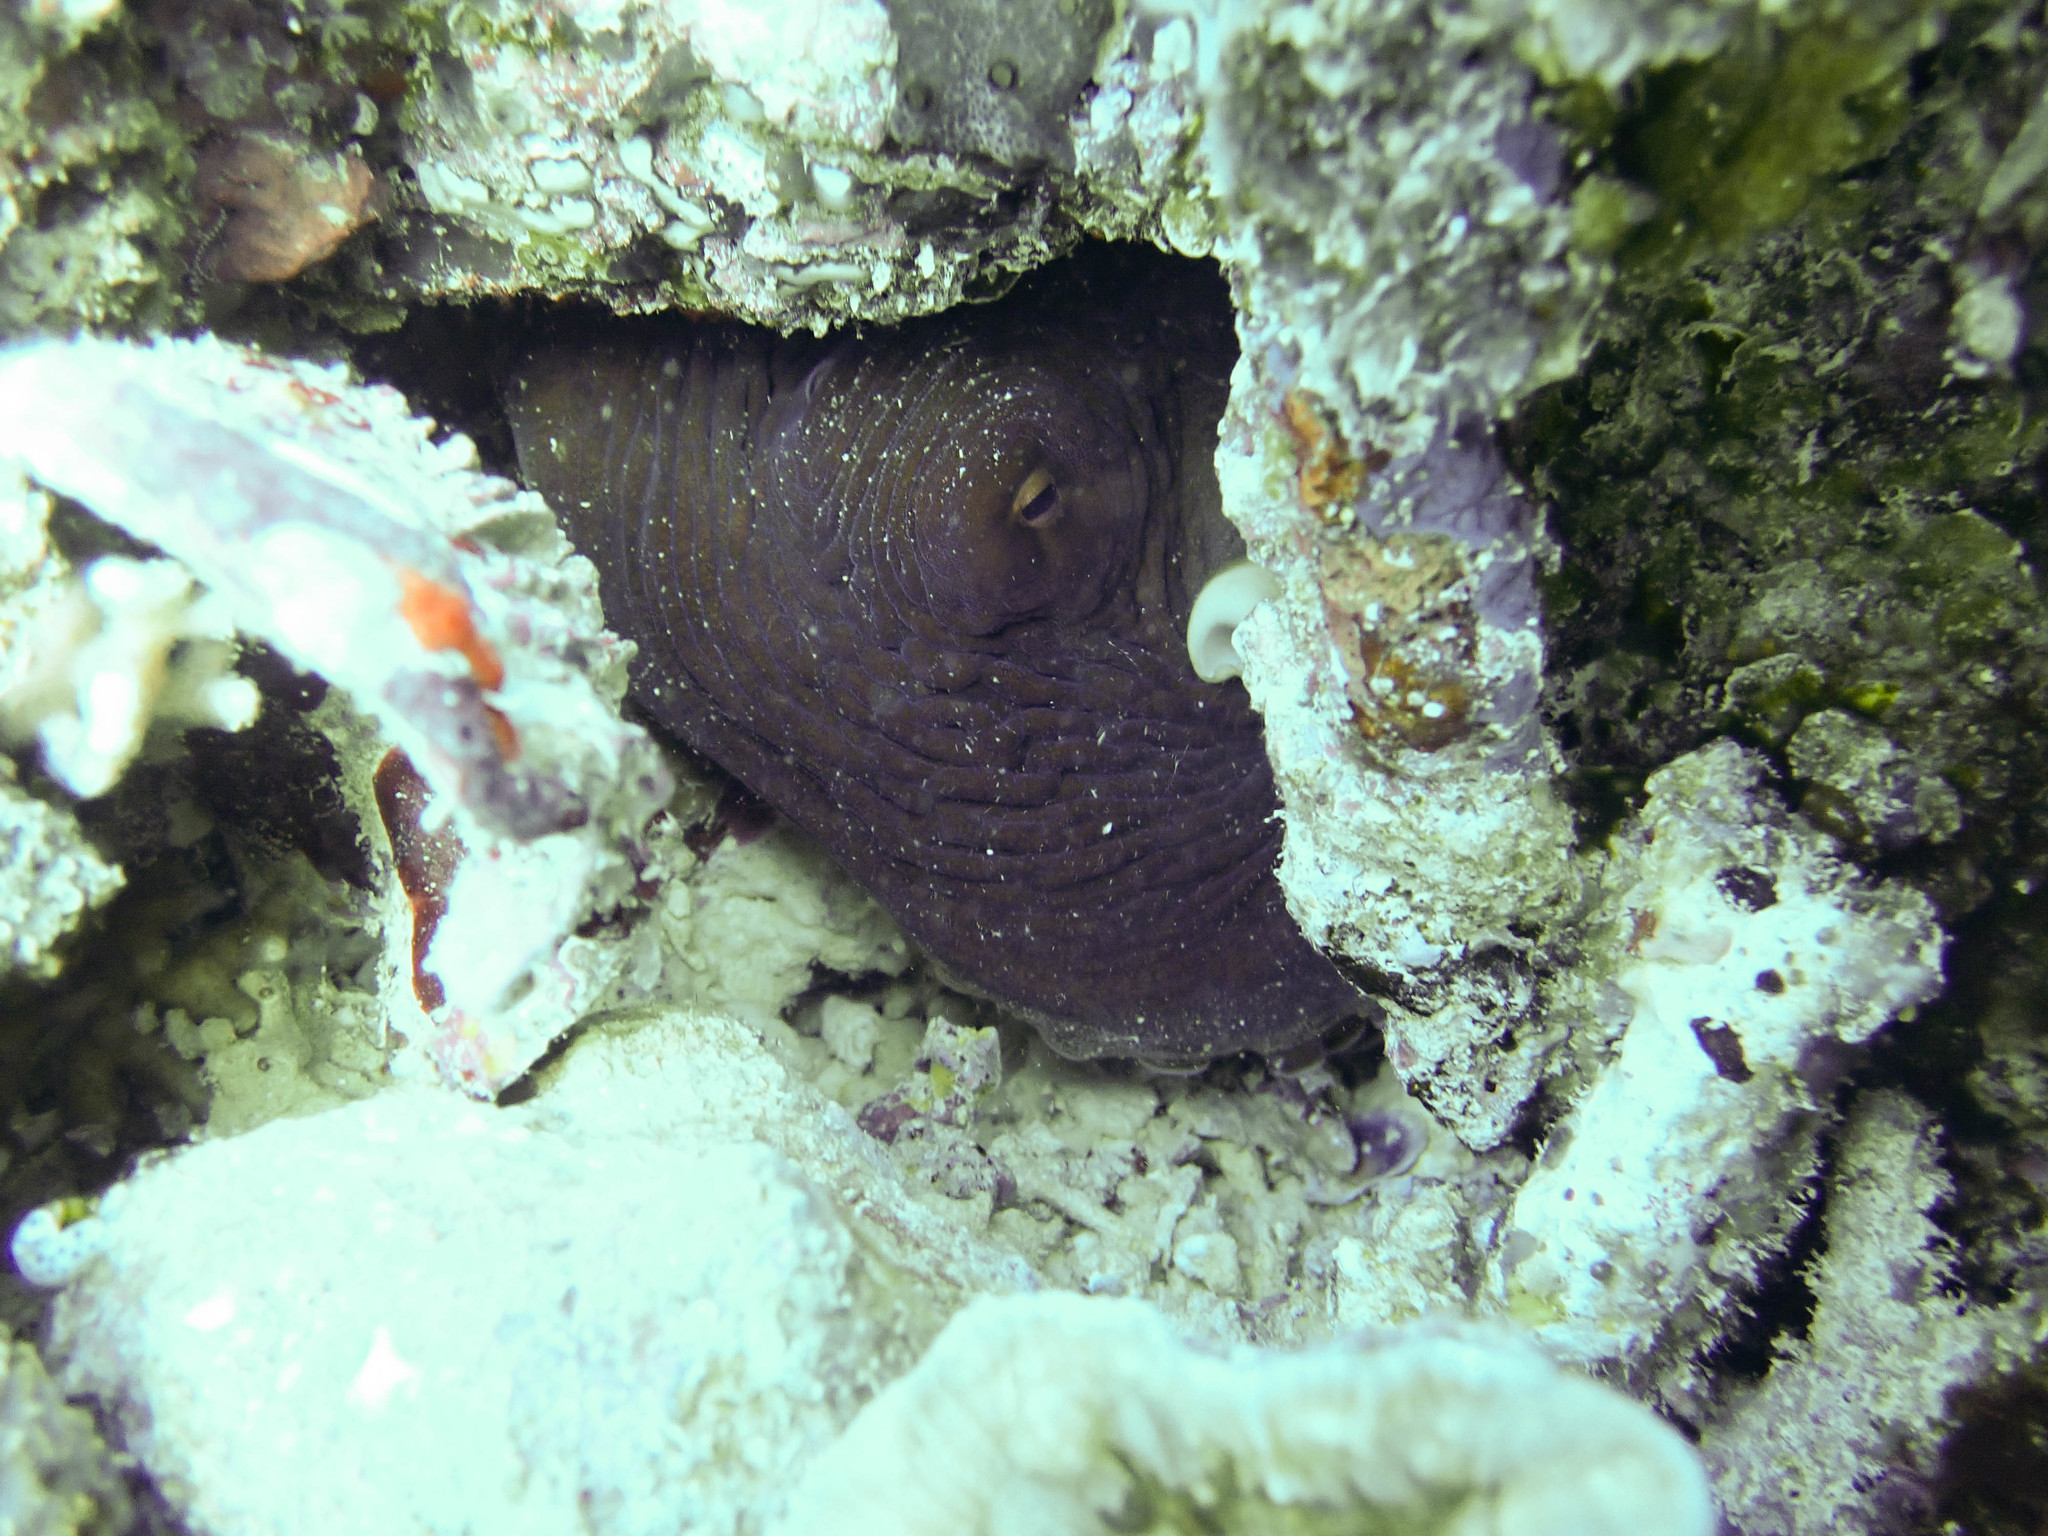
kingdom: Animalia
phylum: Mollusca
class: Cephalopoda
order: Octopoda
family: Octopodidae
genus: Octopus
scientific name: Octopus cyanea
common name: Cyane's octopus
